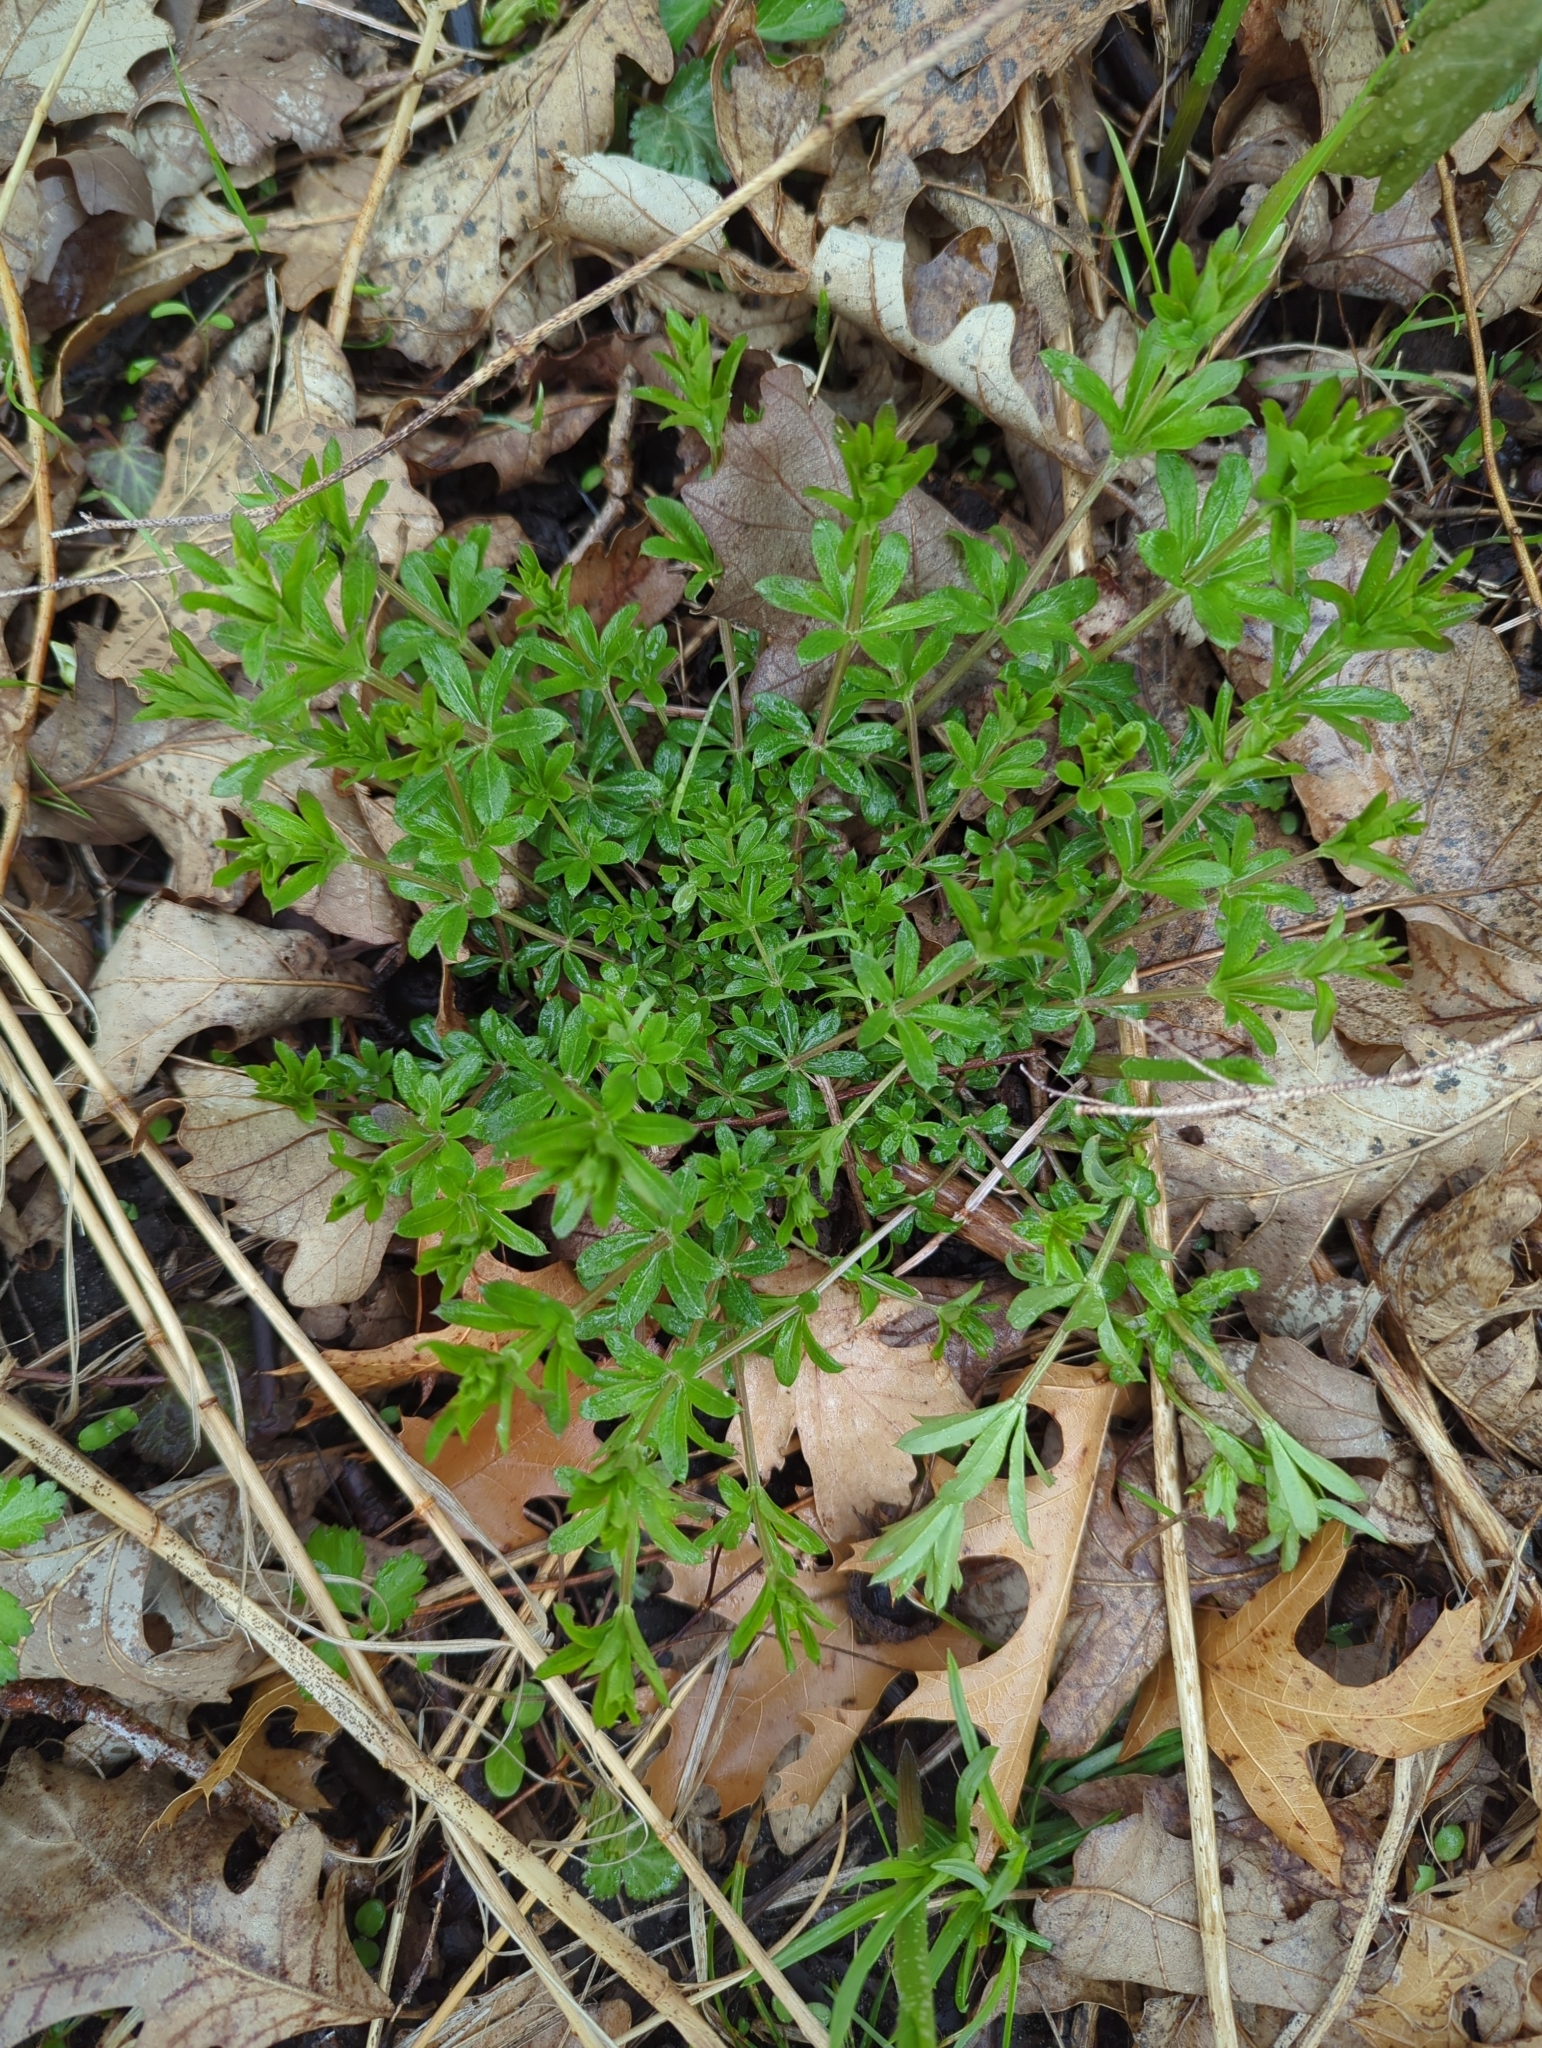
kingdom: Plantae
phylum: Tracheophyta
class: Magnoliopsida
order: Gentianales
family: Rubiaceae
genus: Galium
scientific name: Galium triflorum
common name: Fragrant bedstraw
